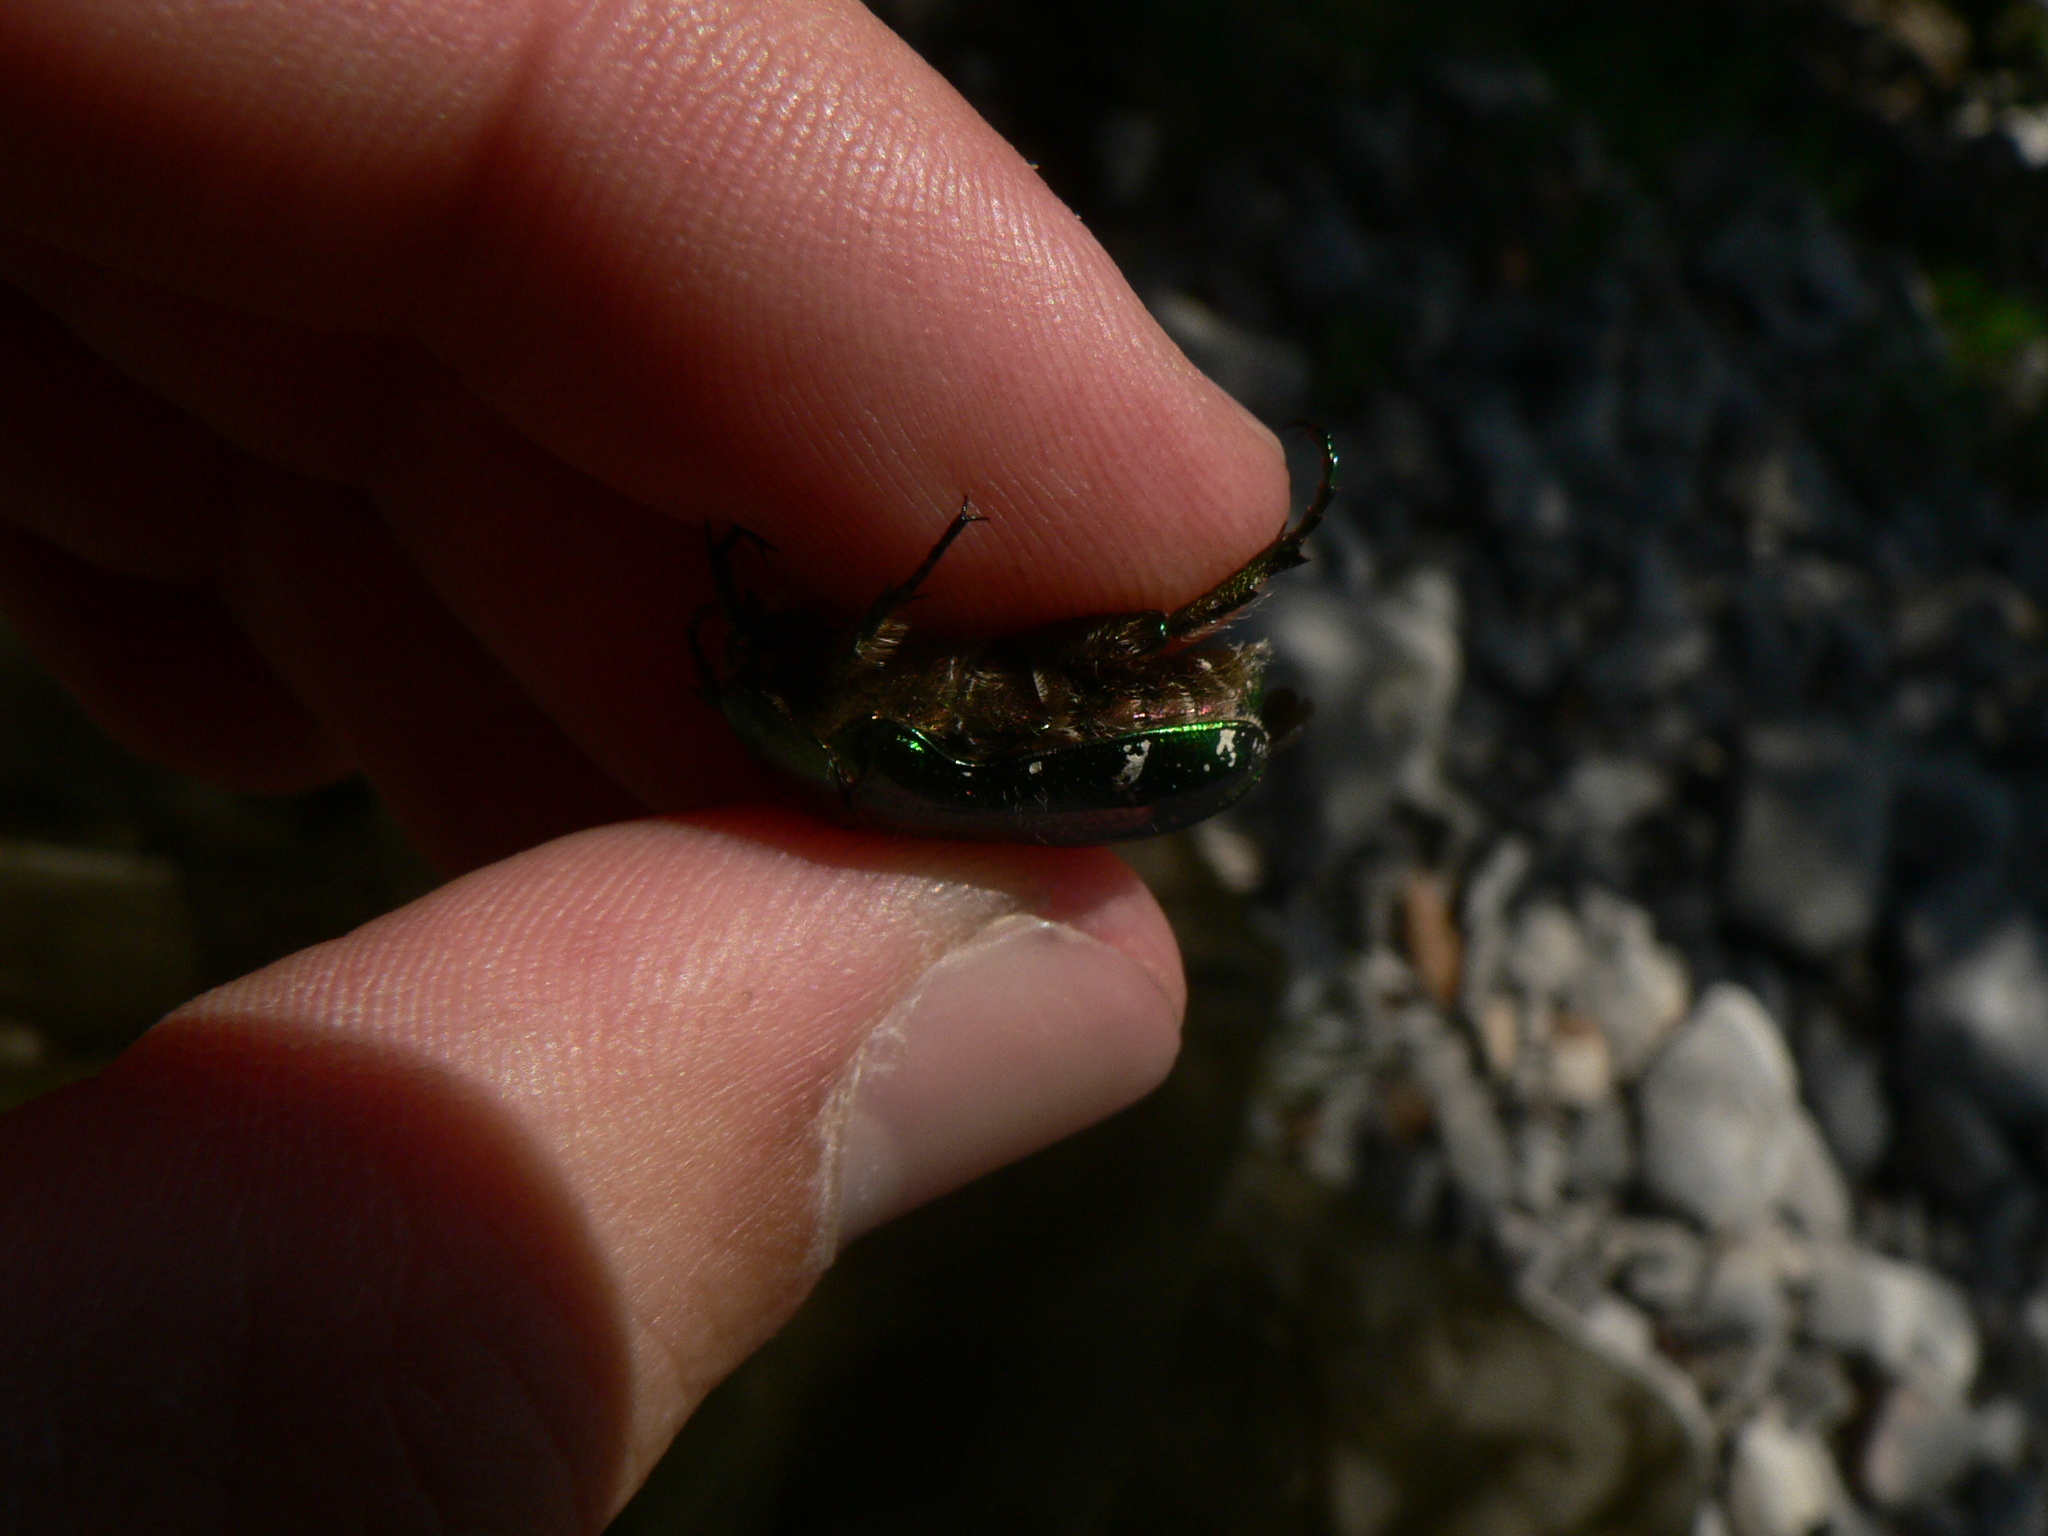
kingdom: Animalia
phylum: Arthropoda
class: Insecta
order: Coleoptera
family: Scarabaeidae
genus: Cetonia
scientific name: Cetonia aurata
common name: Rose chafer
